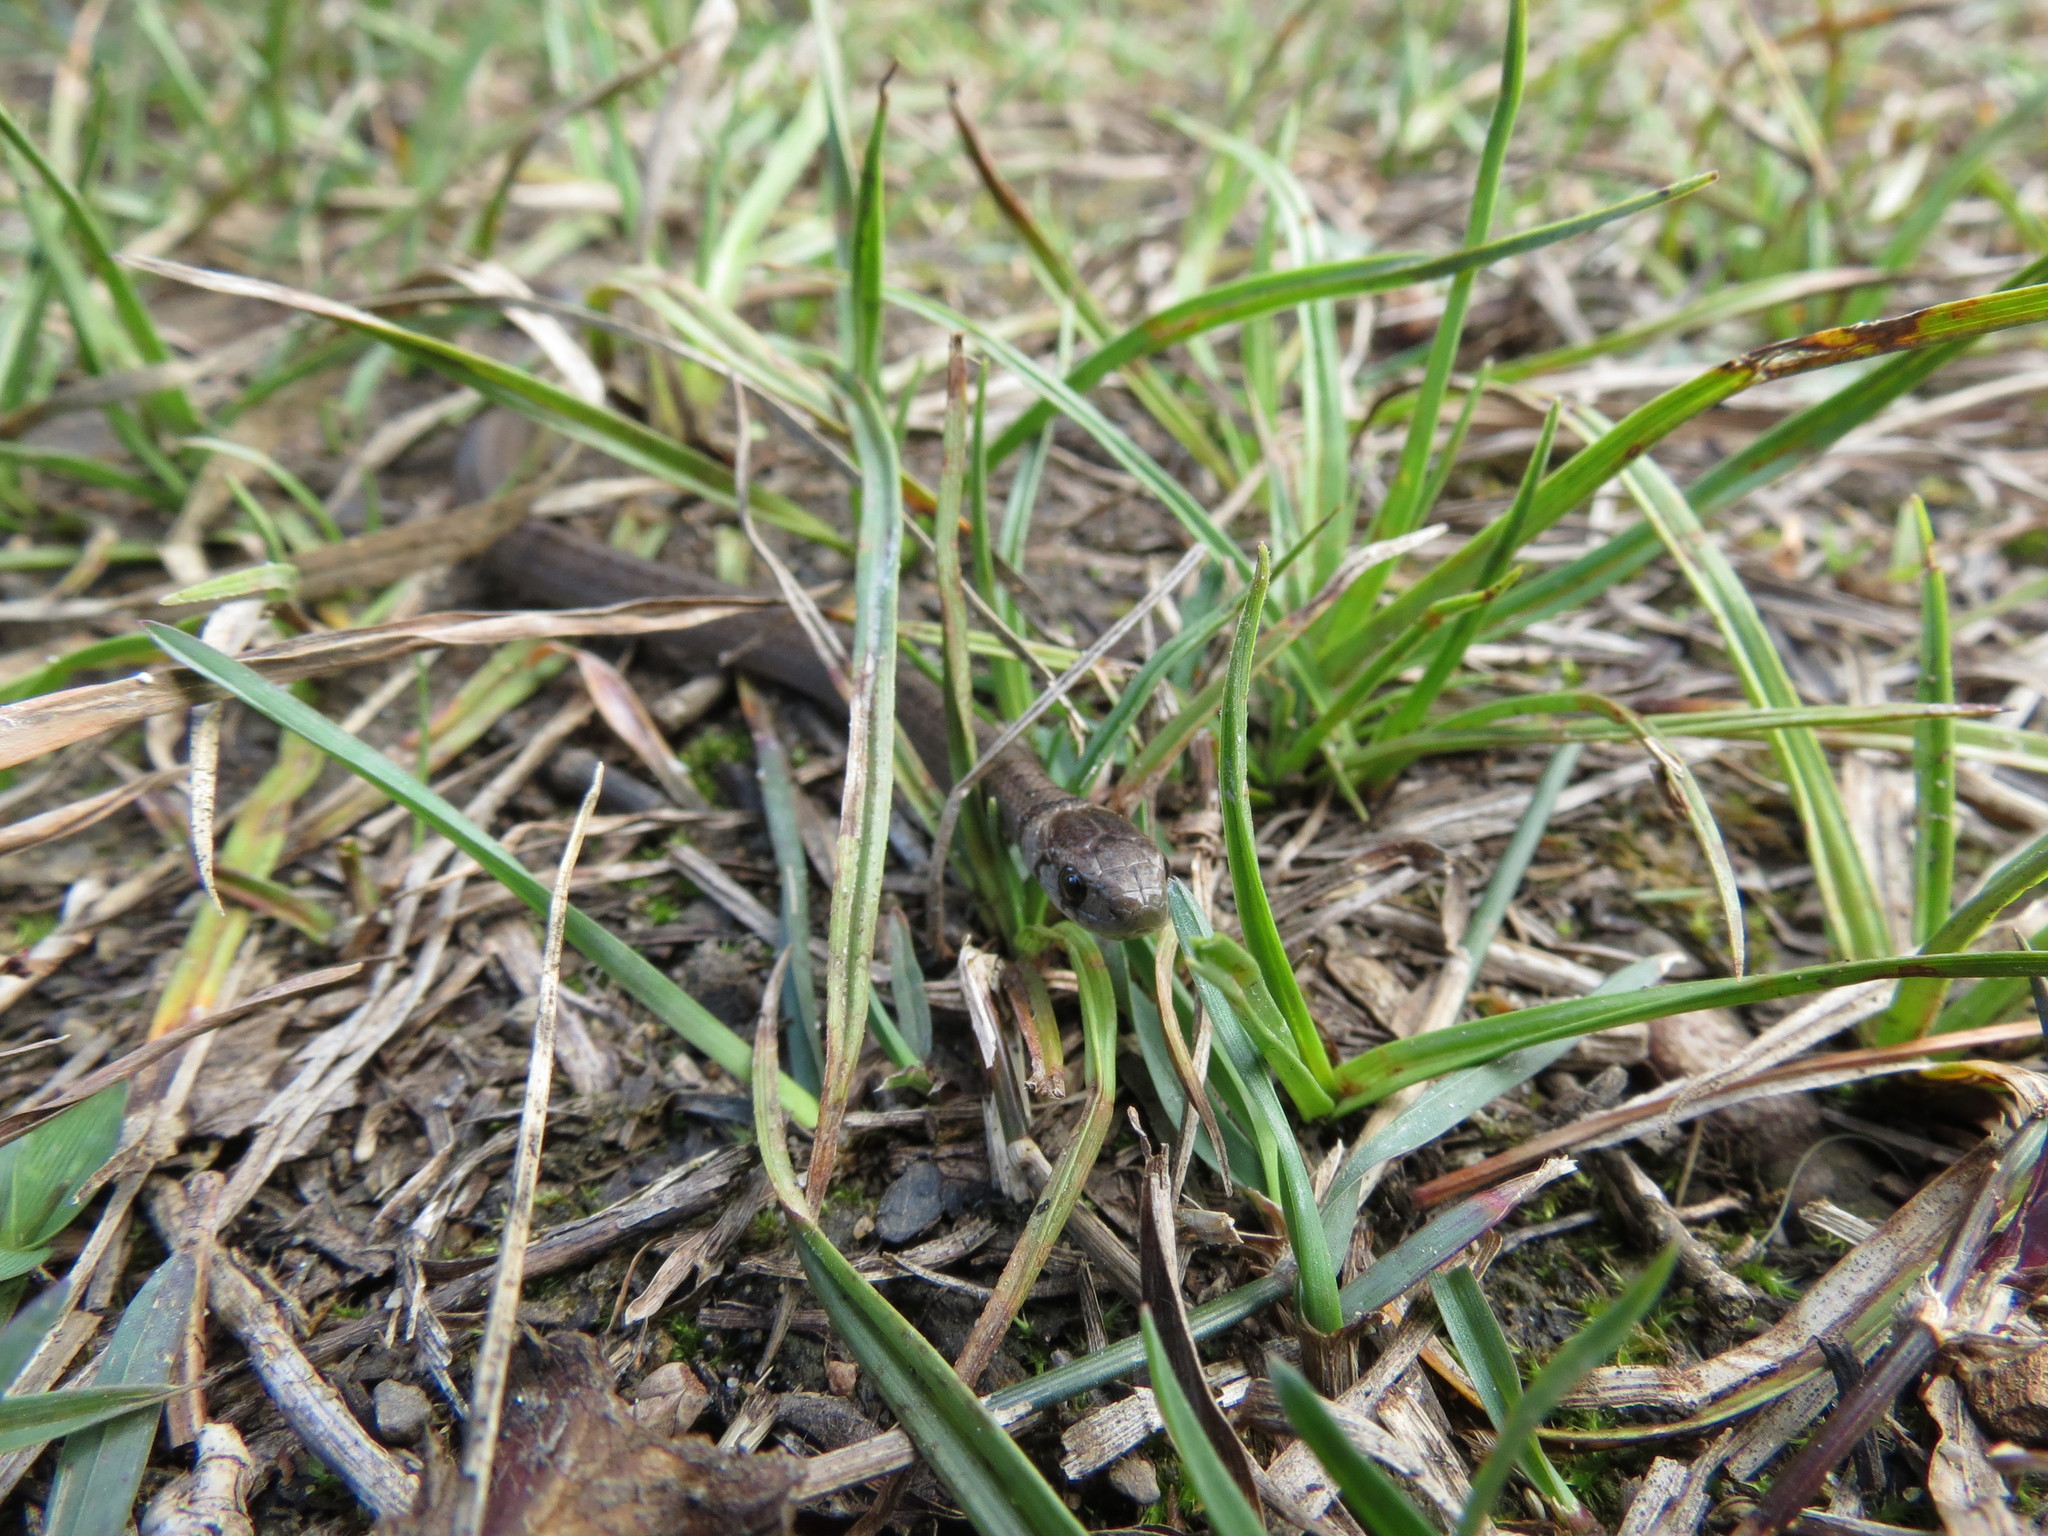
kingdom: Animalia
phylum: Chordata
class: Squamata
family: Colubridae
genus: Storeria
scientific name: Storeria dekayi
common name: (dekay’s) brown snake
